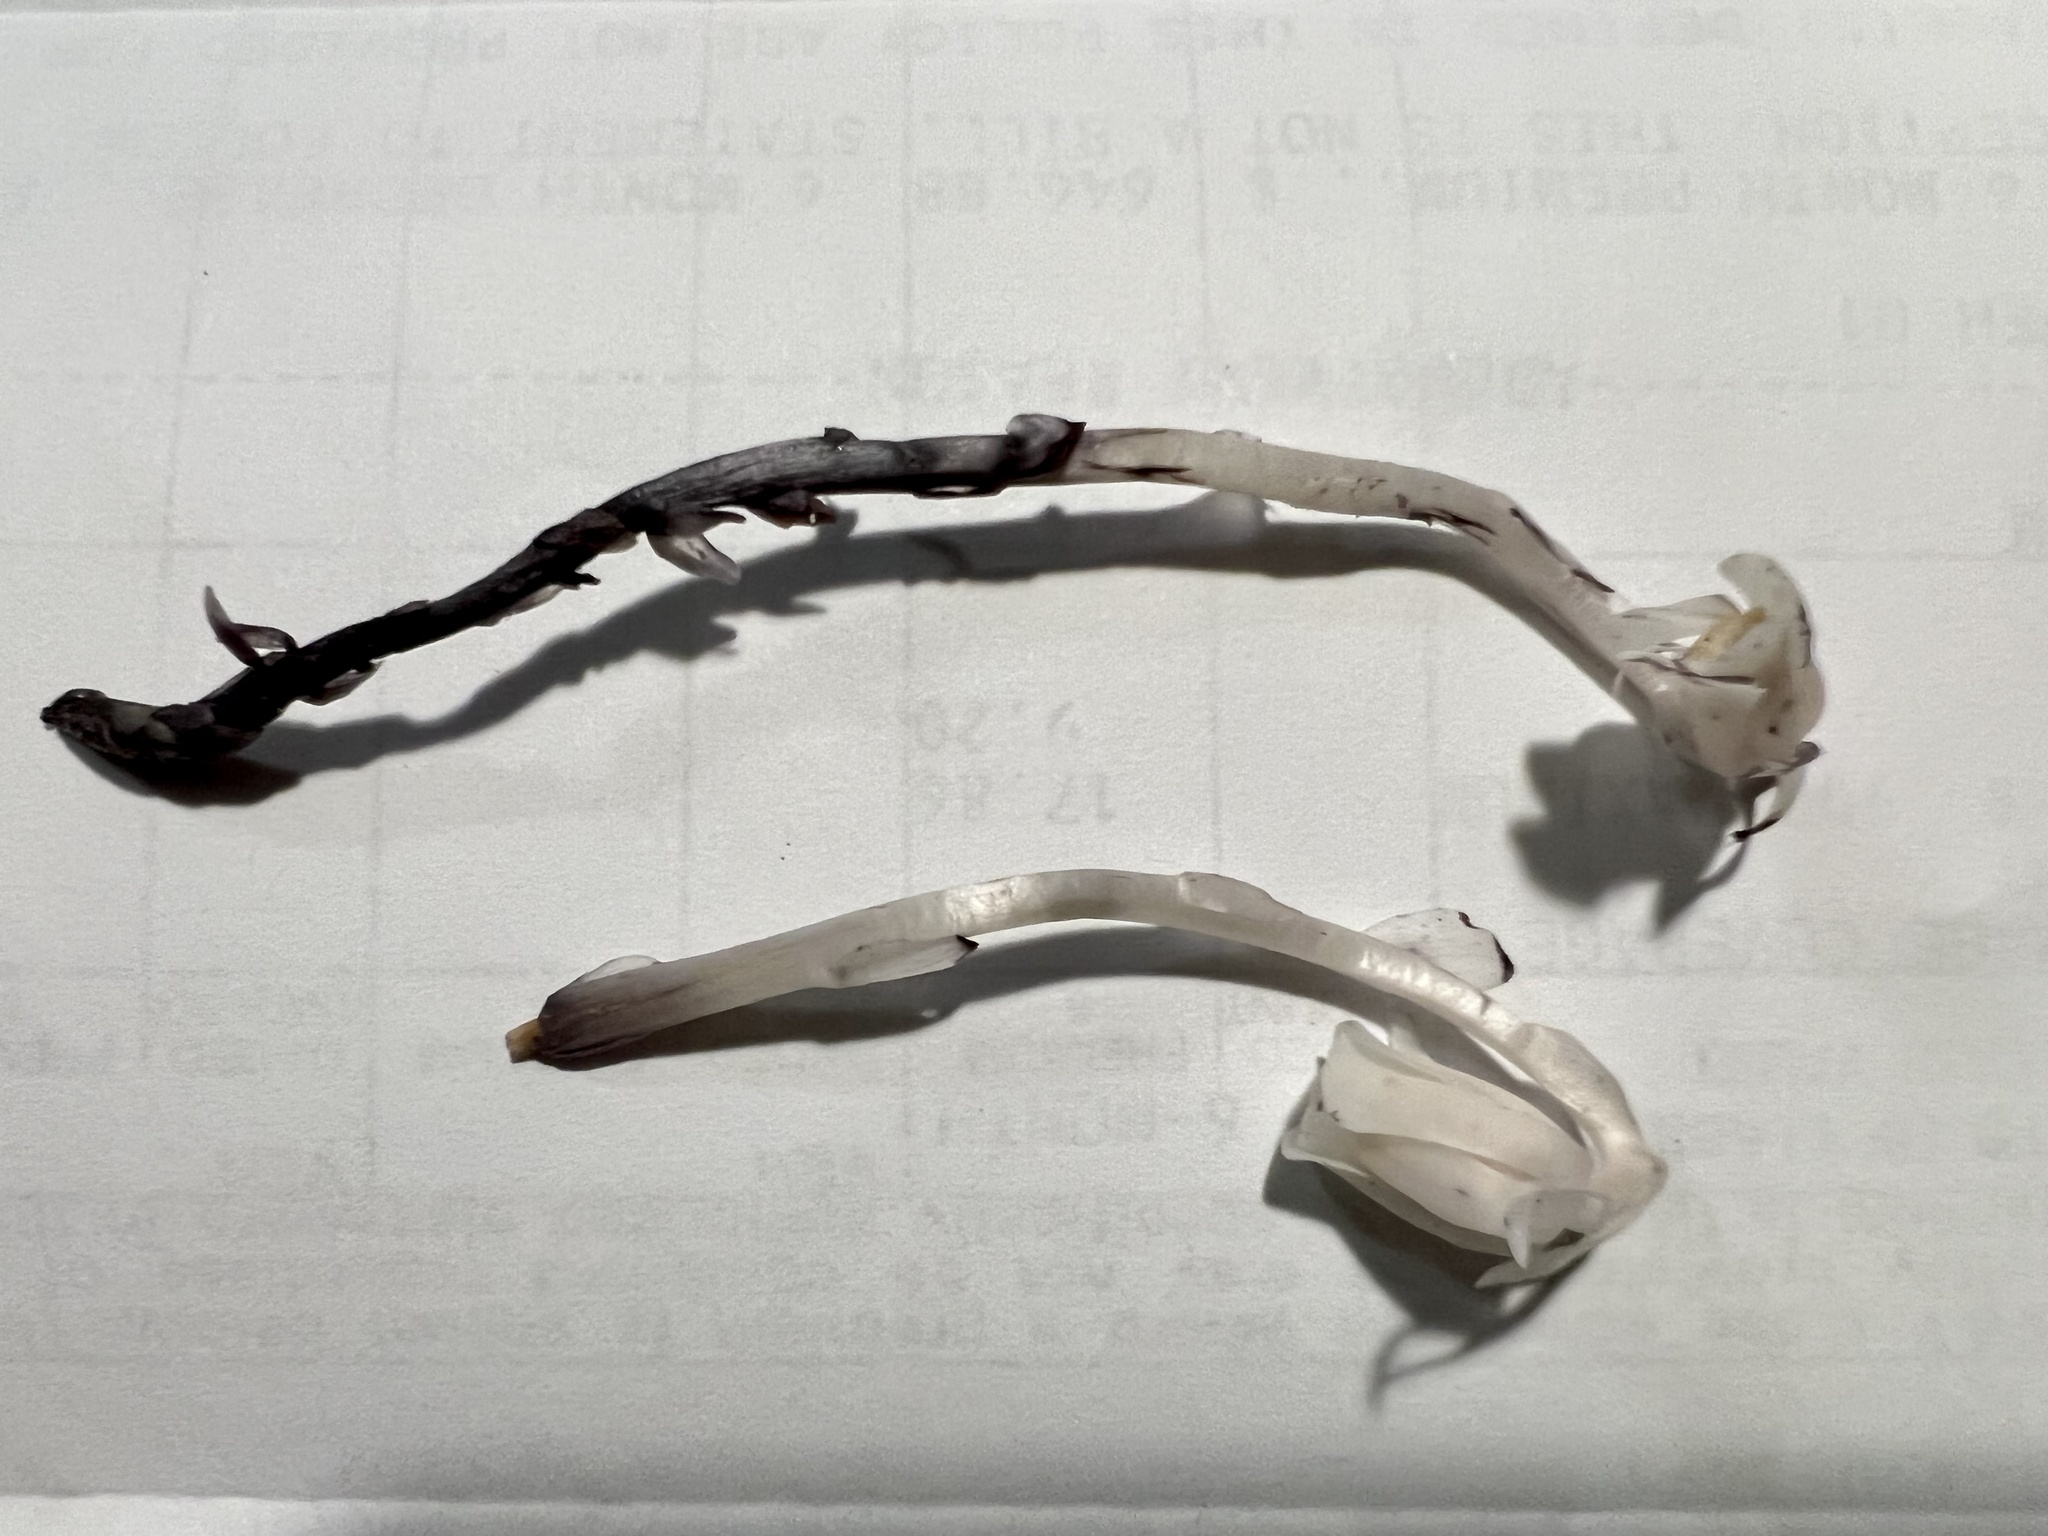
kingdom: Plantae
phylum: Tracheophyta
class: Magnoliopsida
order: Ericales
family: Ericaceae
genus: Monotropa
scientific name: Monotropa uniflora
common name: Convulsion root
